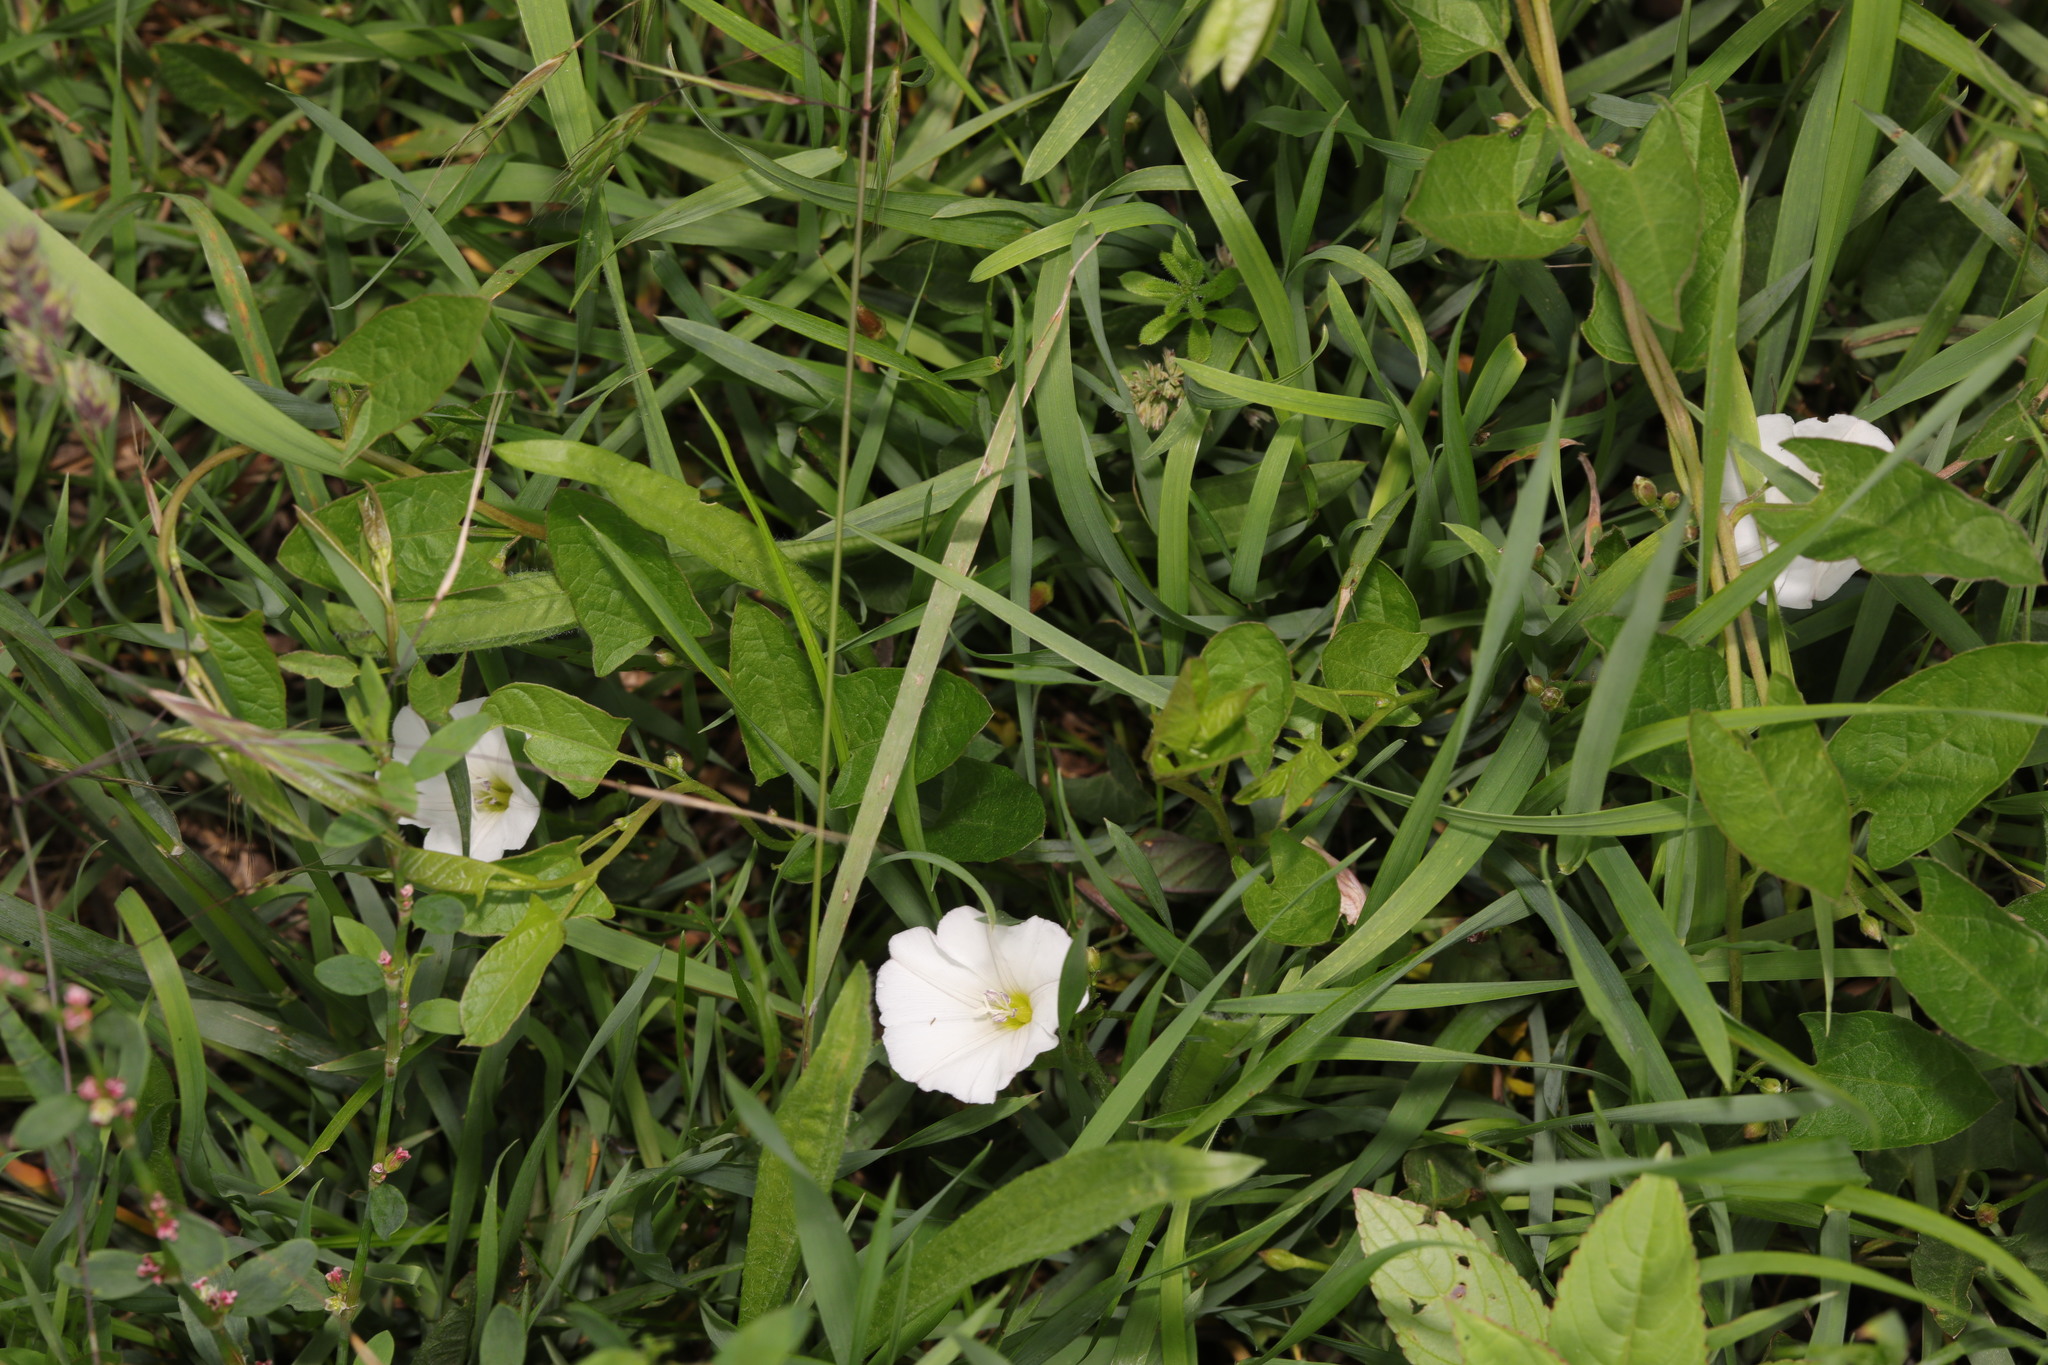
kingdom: Plantae
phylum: Tracheophyta
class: Magnoliopsida
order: Solanales
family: Convolvulaceae
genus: Convolvulus
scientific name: Convolvulus arvensis
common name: Field bindweed
